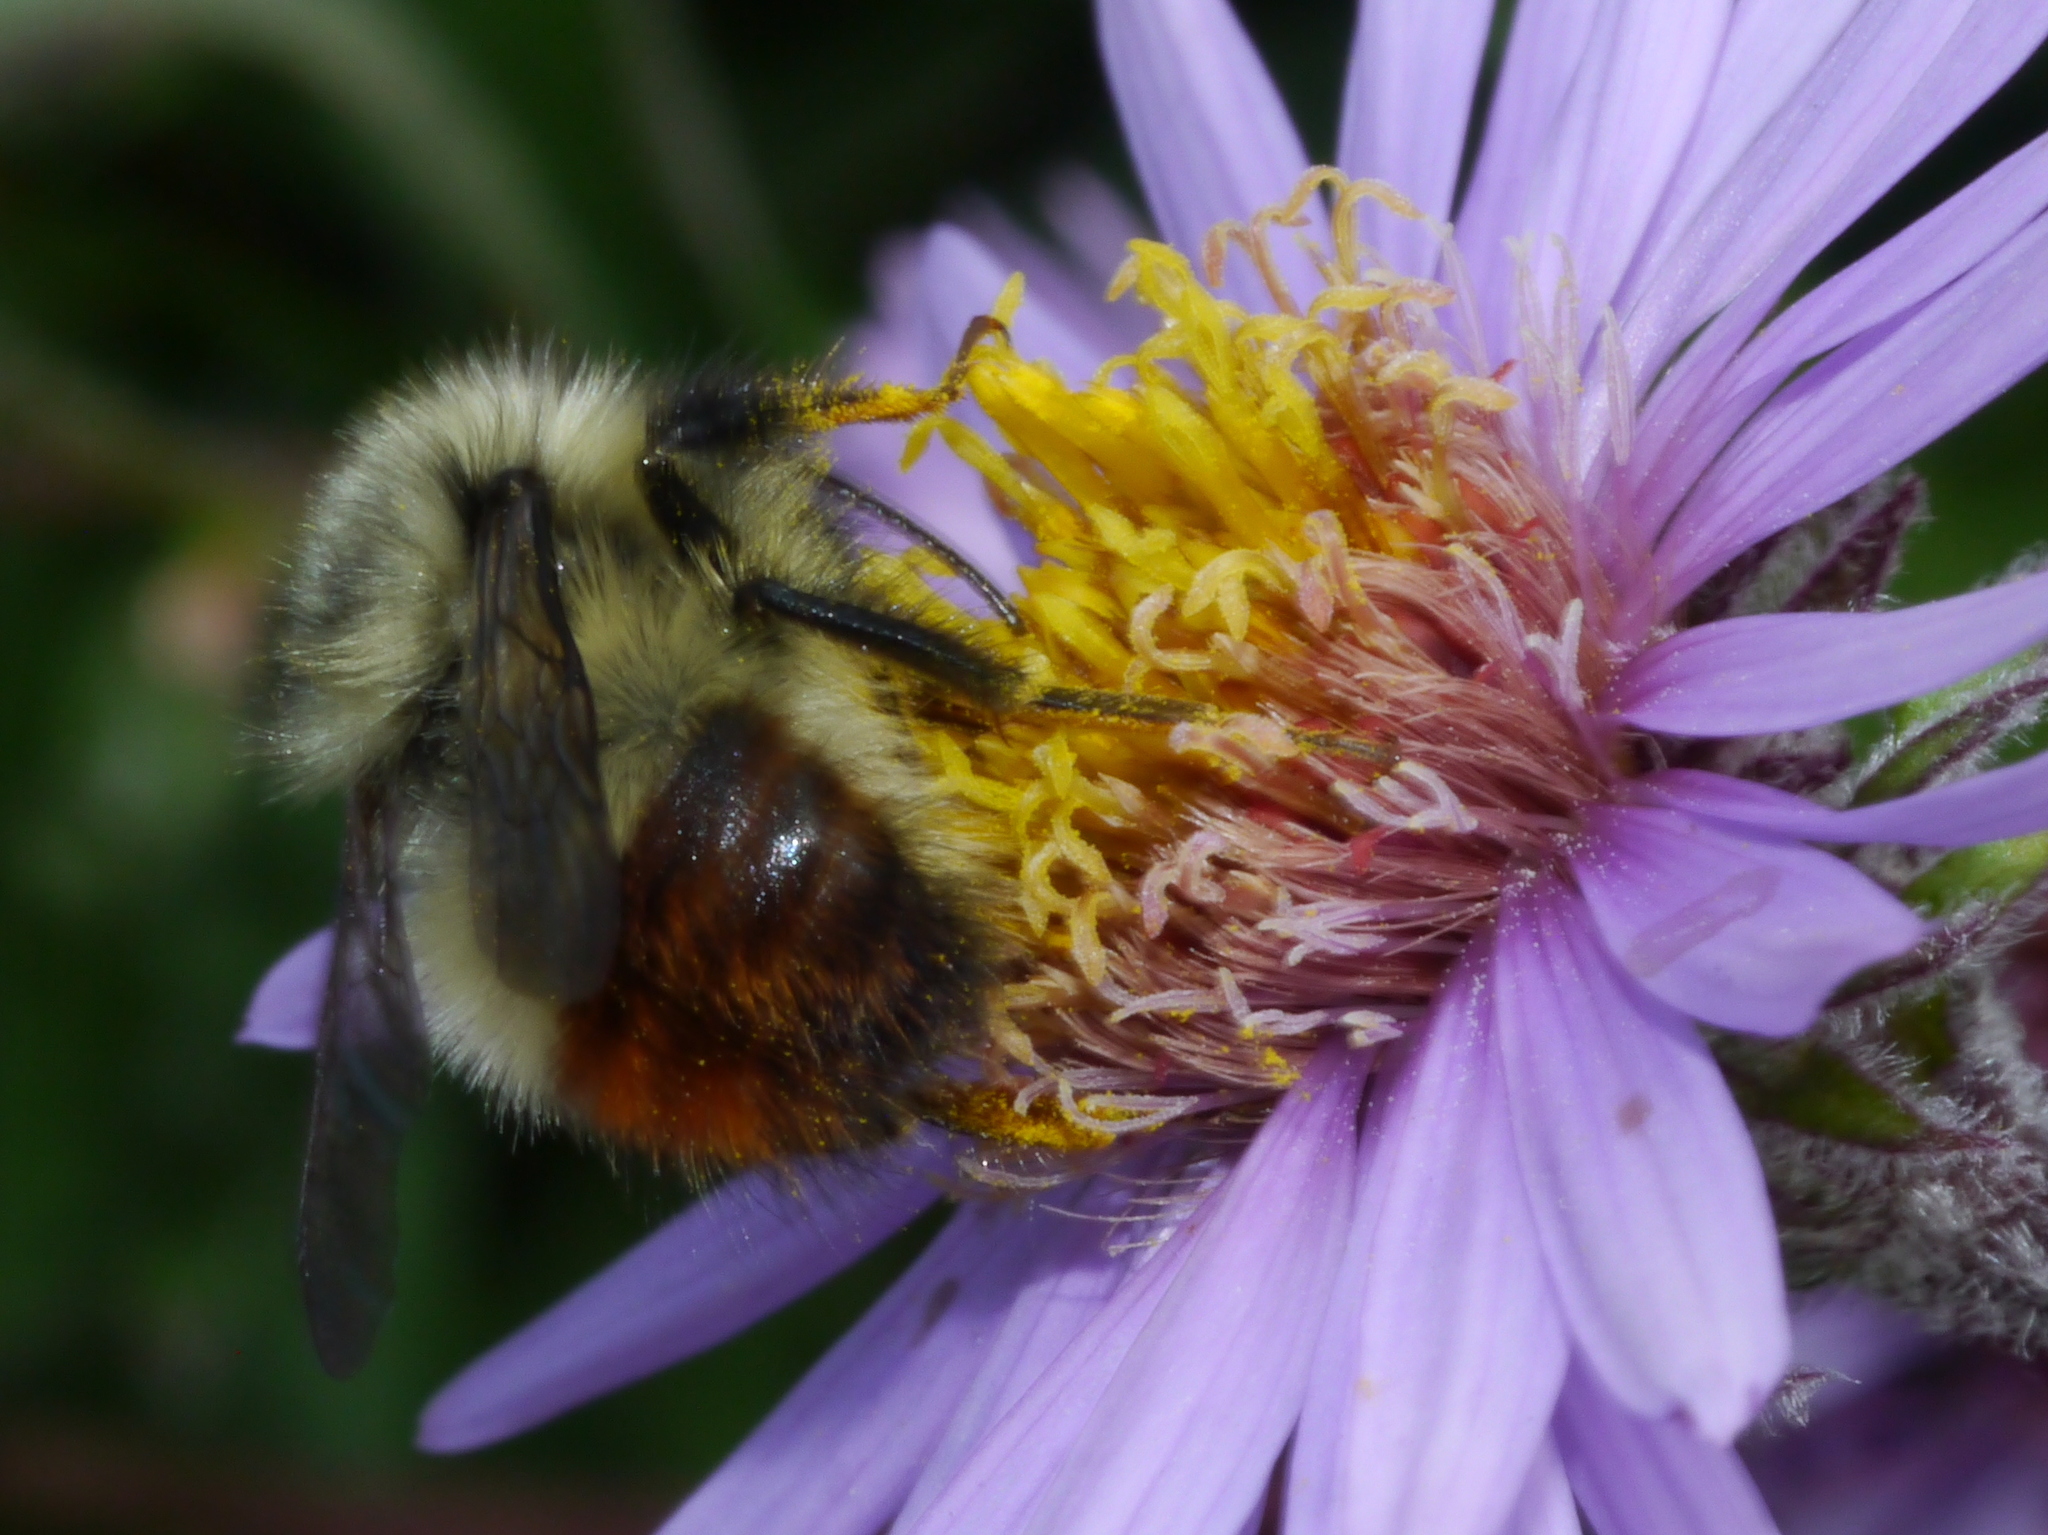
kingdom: Animalia
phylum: Arthropoda
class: Insecta
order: Hymenoptera
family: Apidae
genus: Bombus
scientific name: Bombus melanopygus
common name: Black tail bumble bee
